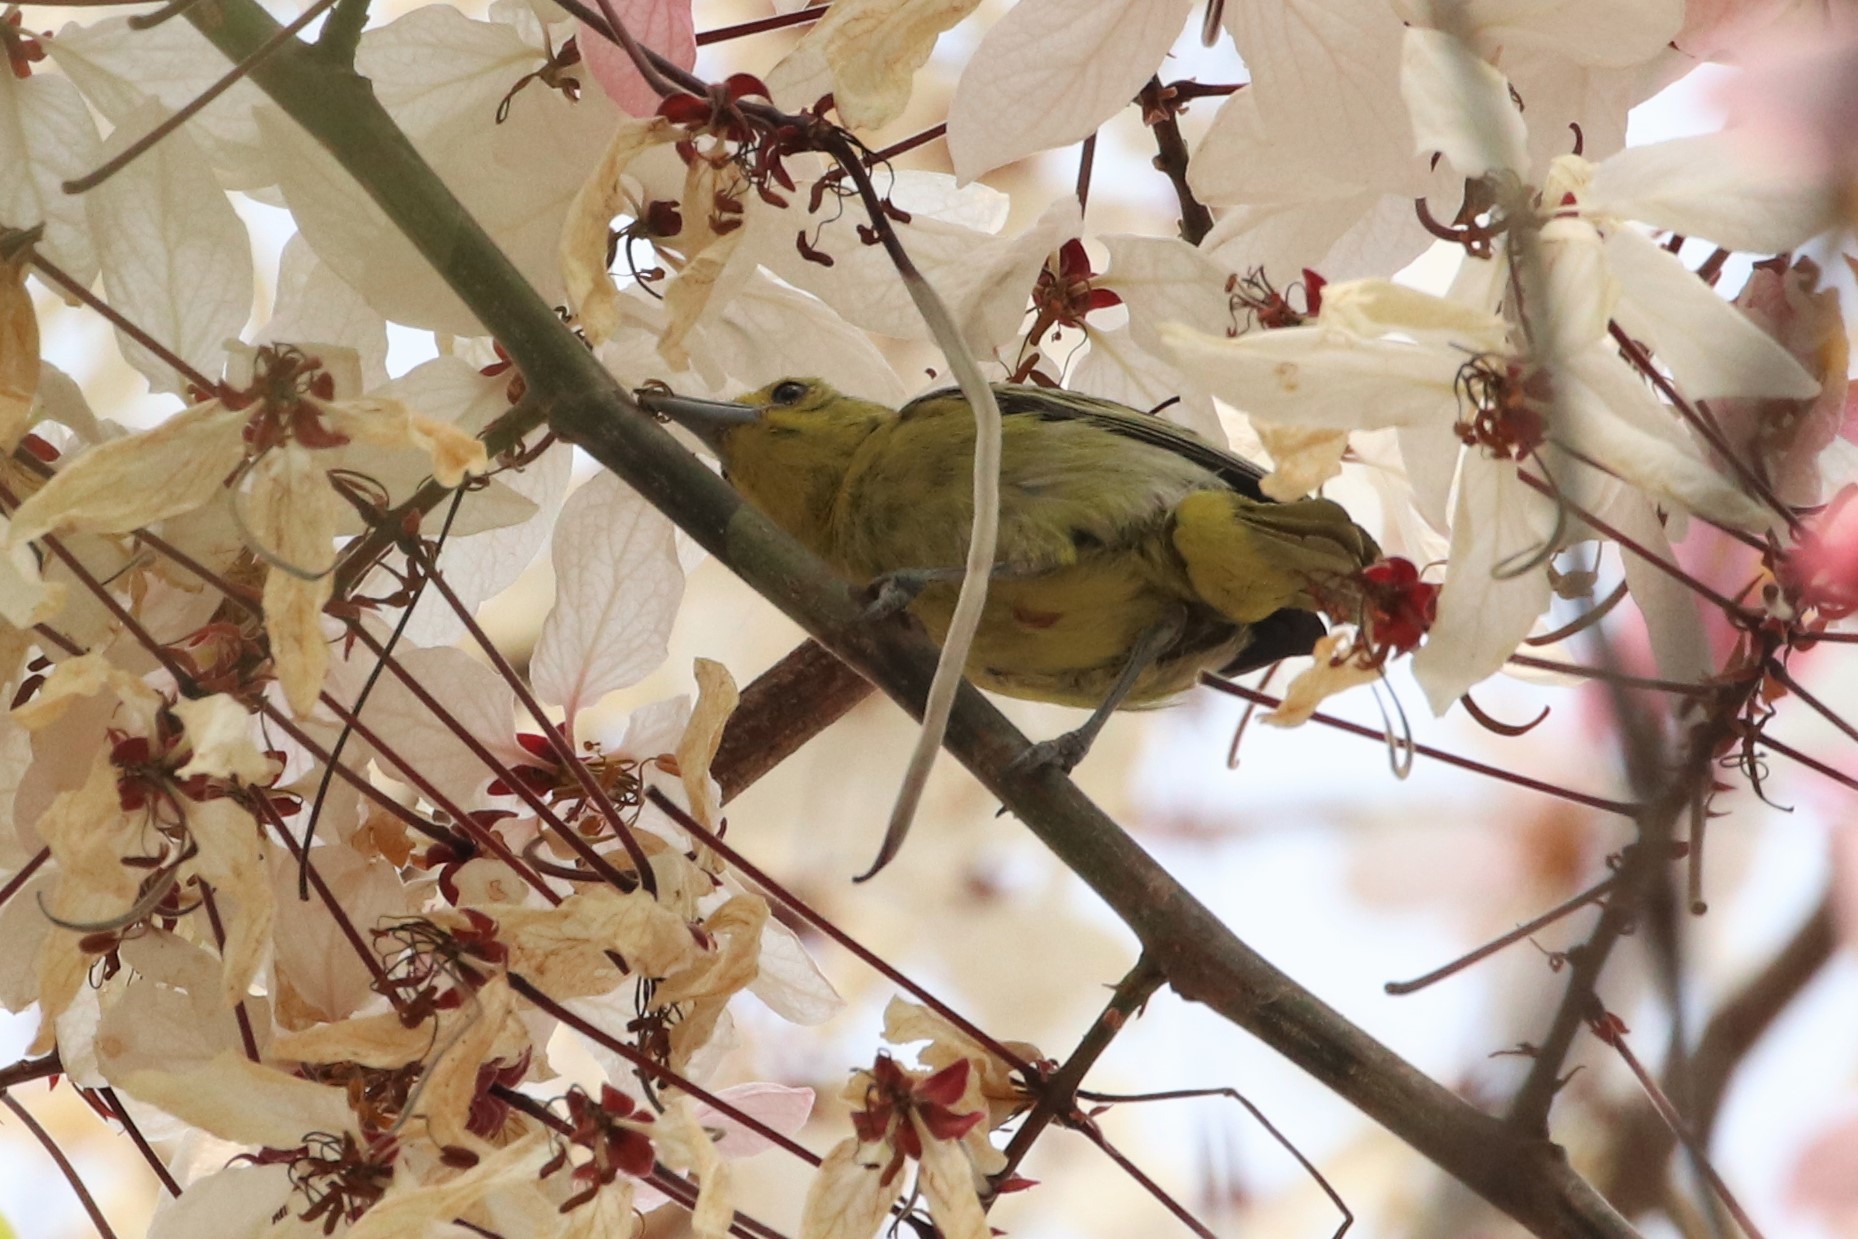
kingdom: Animalia
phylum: Chordata
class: Aves
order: Passeriformes
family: Aegithinidae
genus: Aegithina
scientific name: Aegithina tiphia
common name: Common iora
